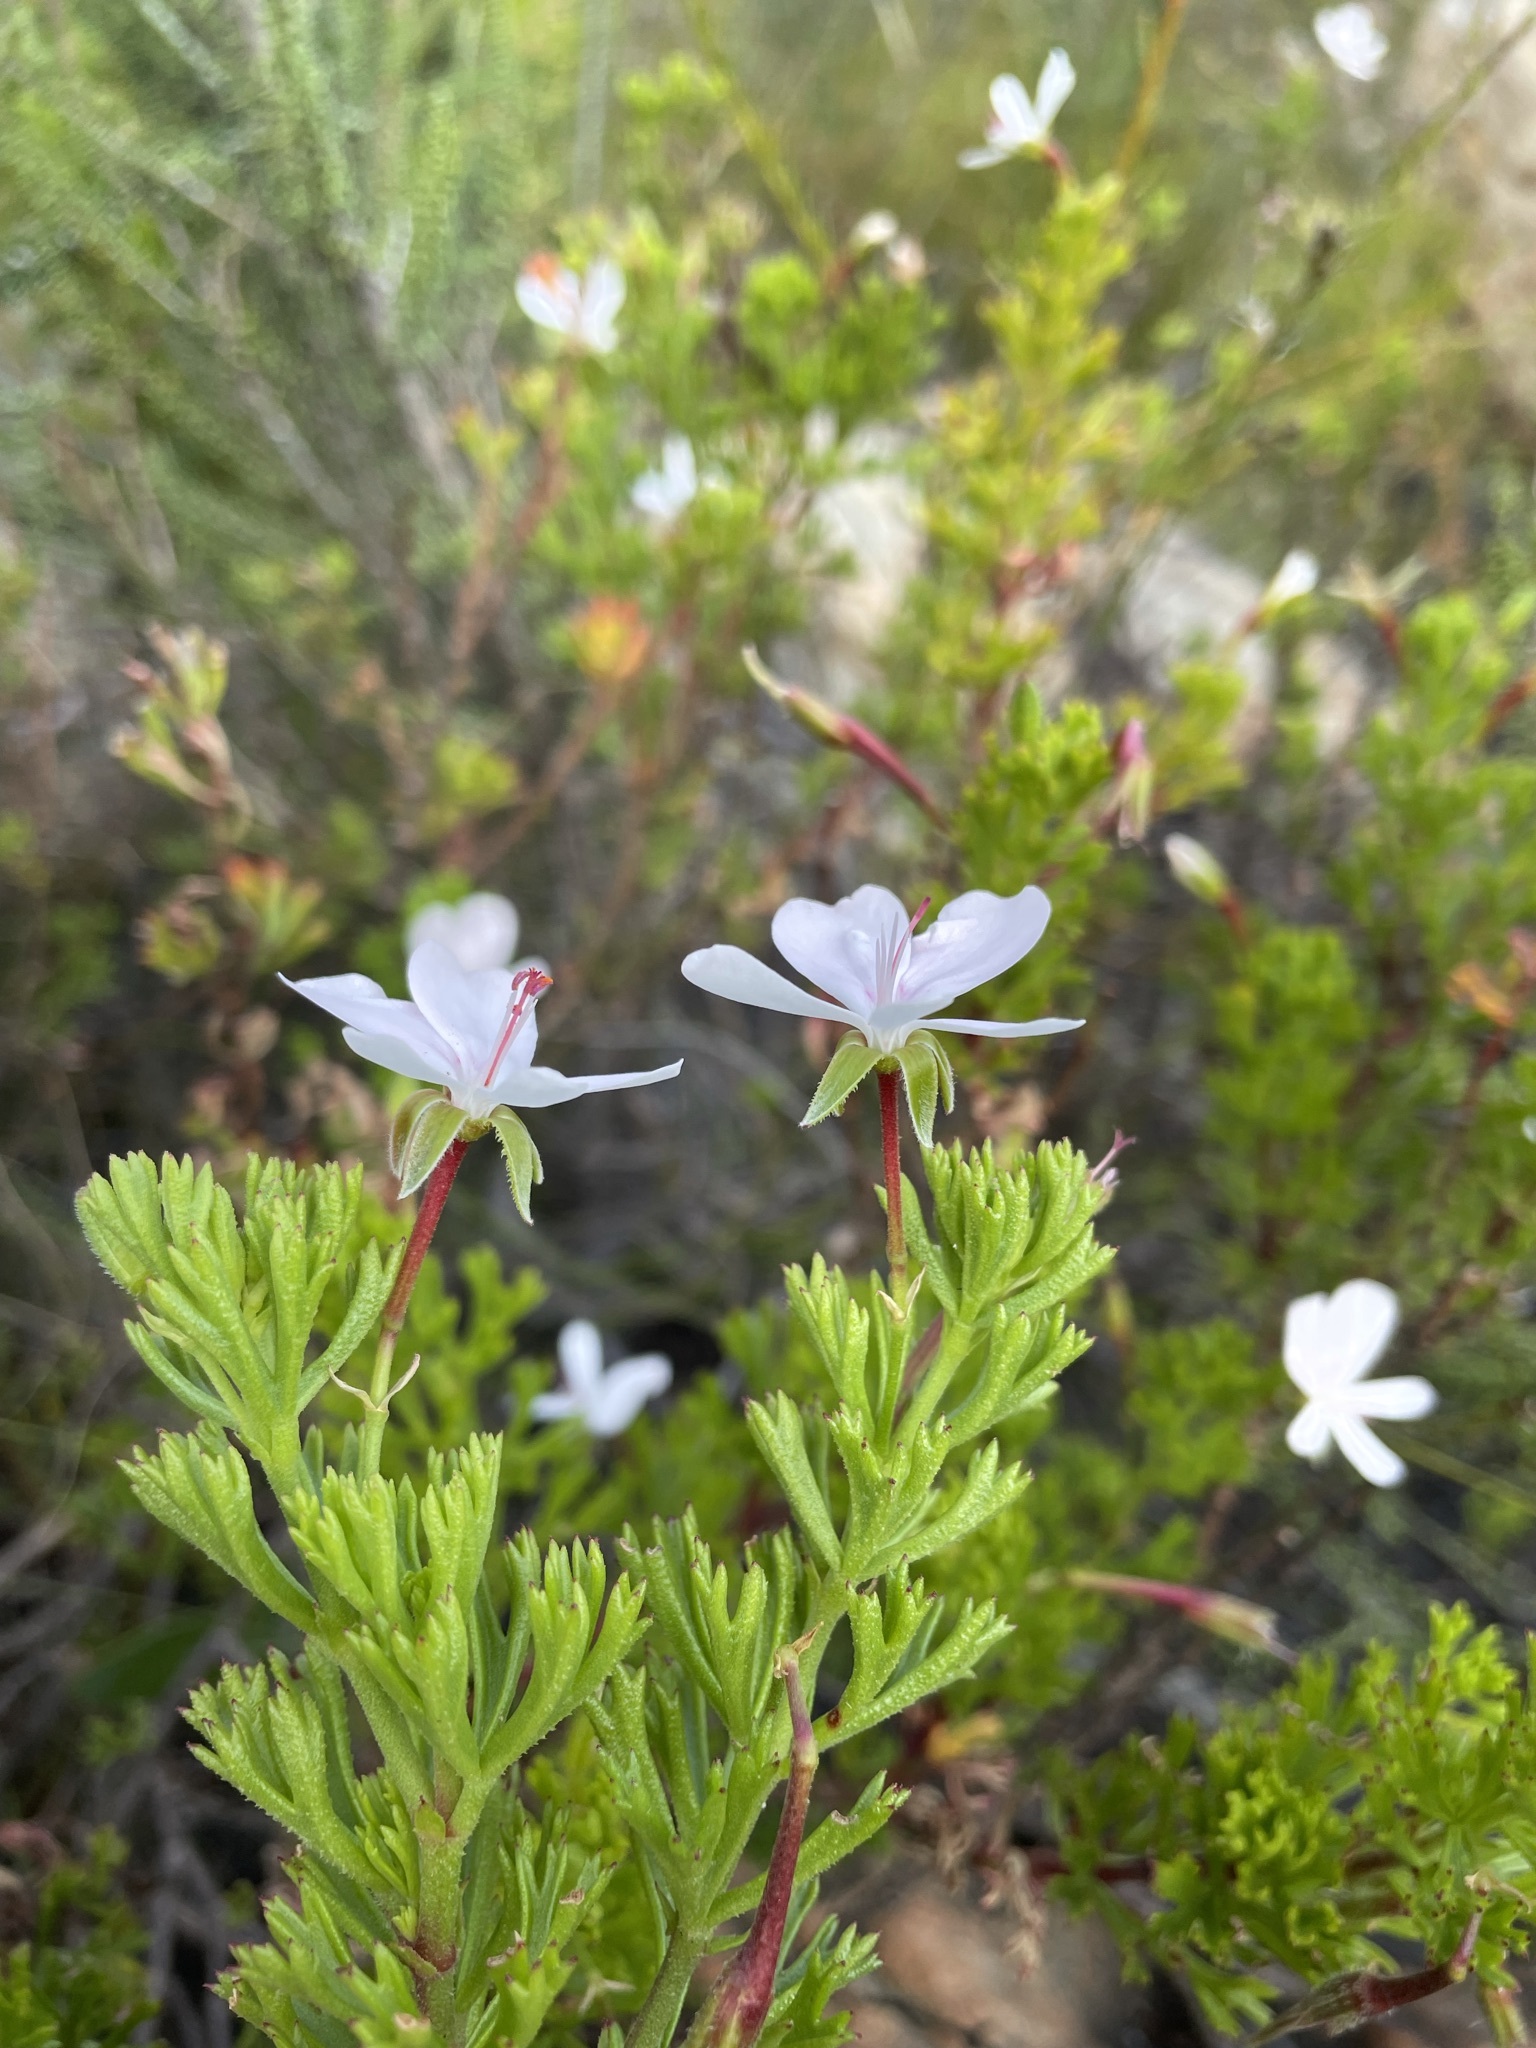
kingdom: Plantae
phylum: Tracheophyta
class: Magnoliopsida
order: Geraniales
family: Geraniaceae
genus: Pelargonium
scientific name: Pelargonium ternatum
